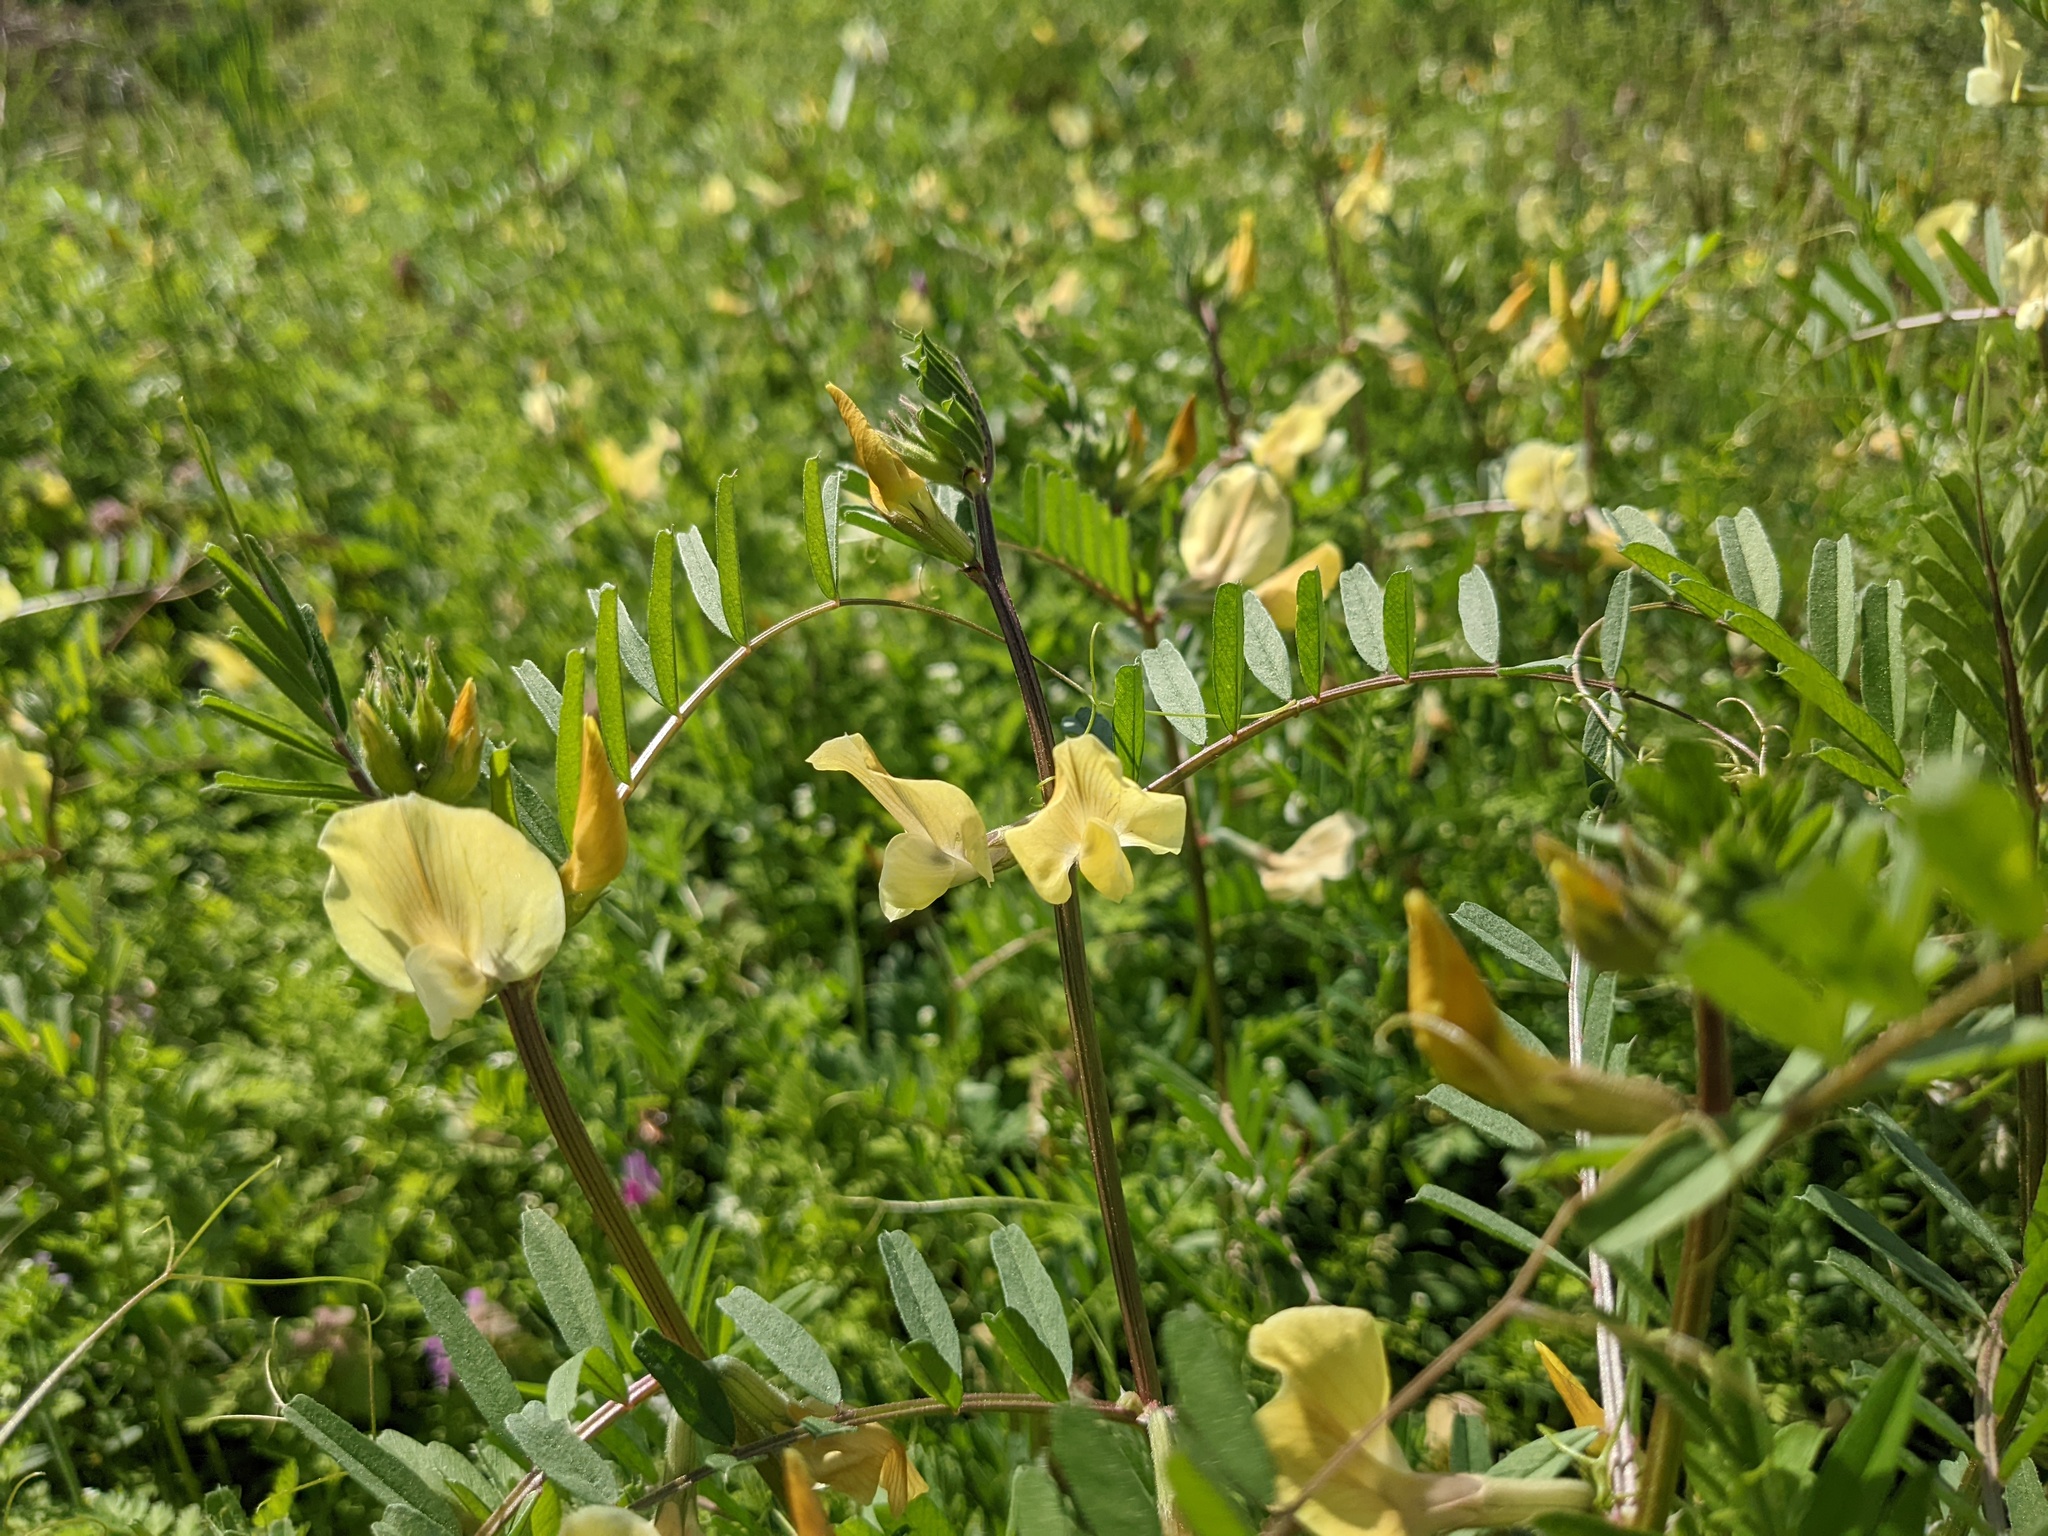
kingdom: Plantae
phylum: Tracheophyta
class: Magnoliopsida
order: Fabales
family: Fabaceae
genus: Vicia
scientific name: Vicia grandiflora
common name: Large yellow vetch
